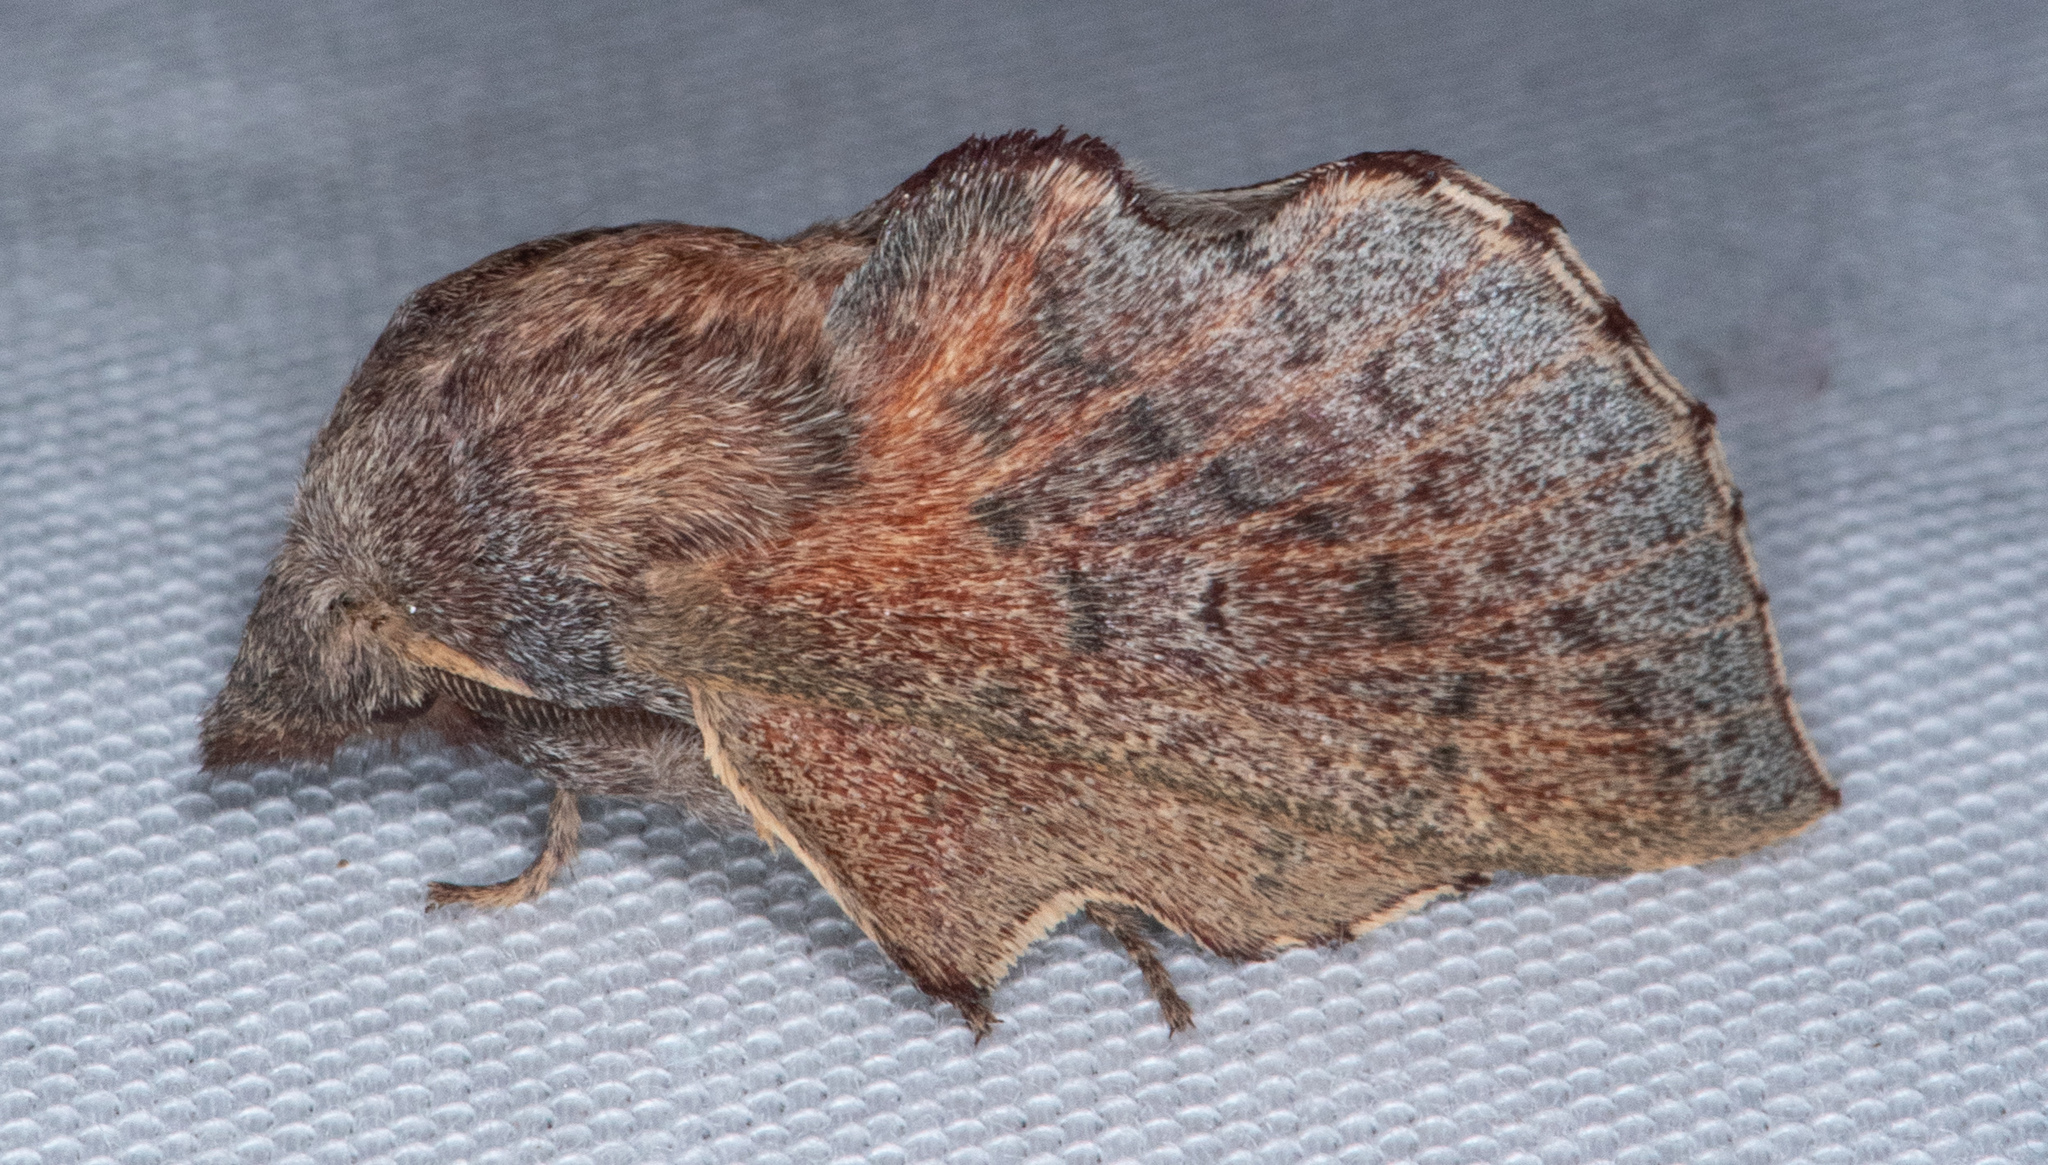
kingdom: Animalia
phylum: Arthropoda
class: Insecta
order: Lepidoptera
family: Lasiocampidae
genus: Phyllodesma
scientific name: Phyllodesma americana
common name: American lappet moth
